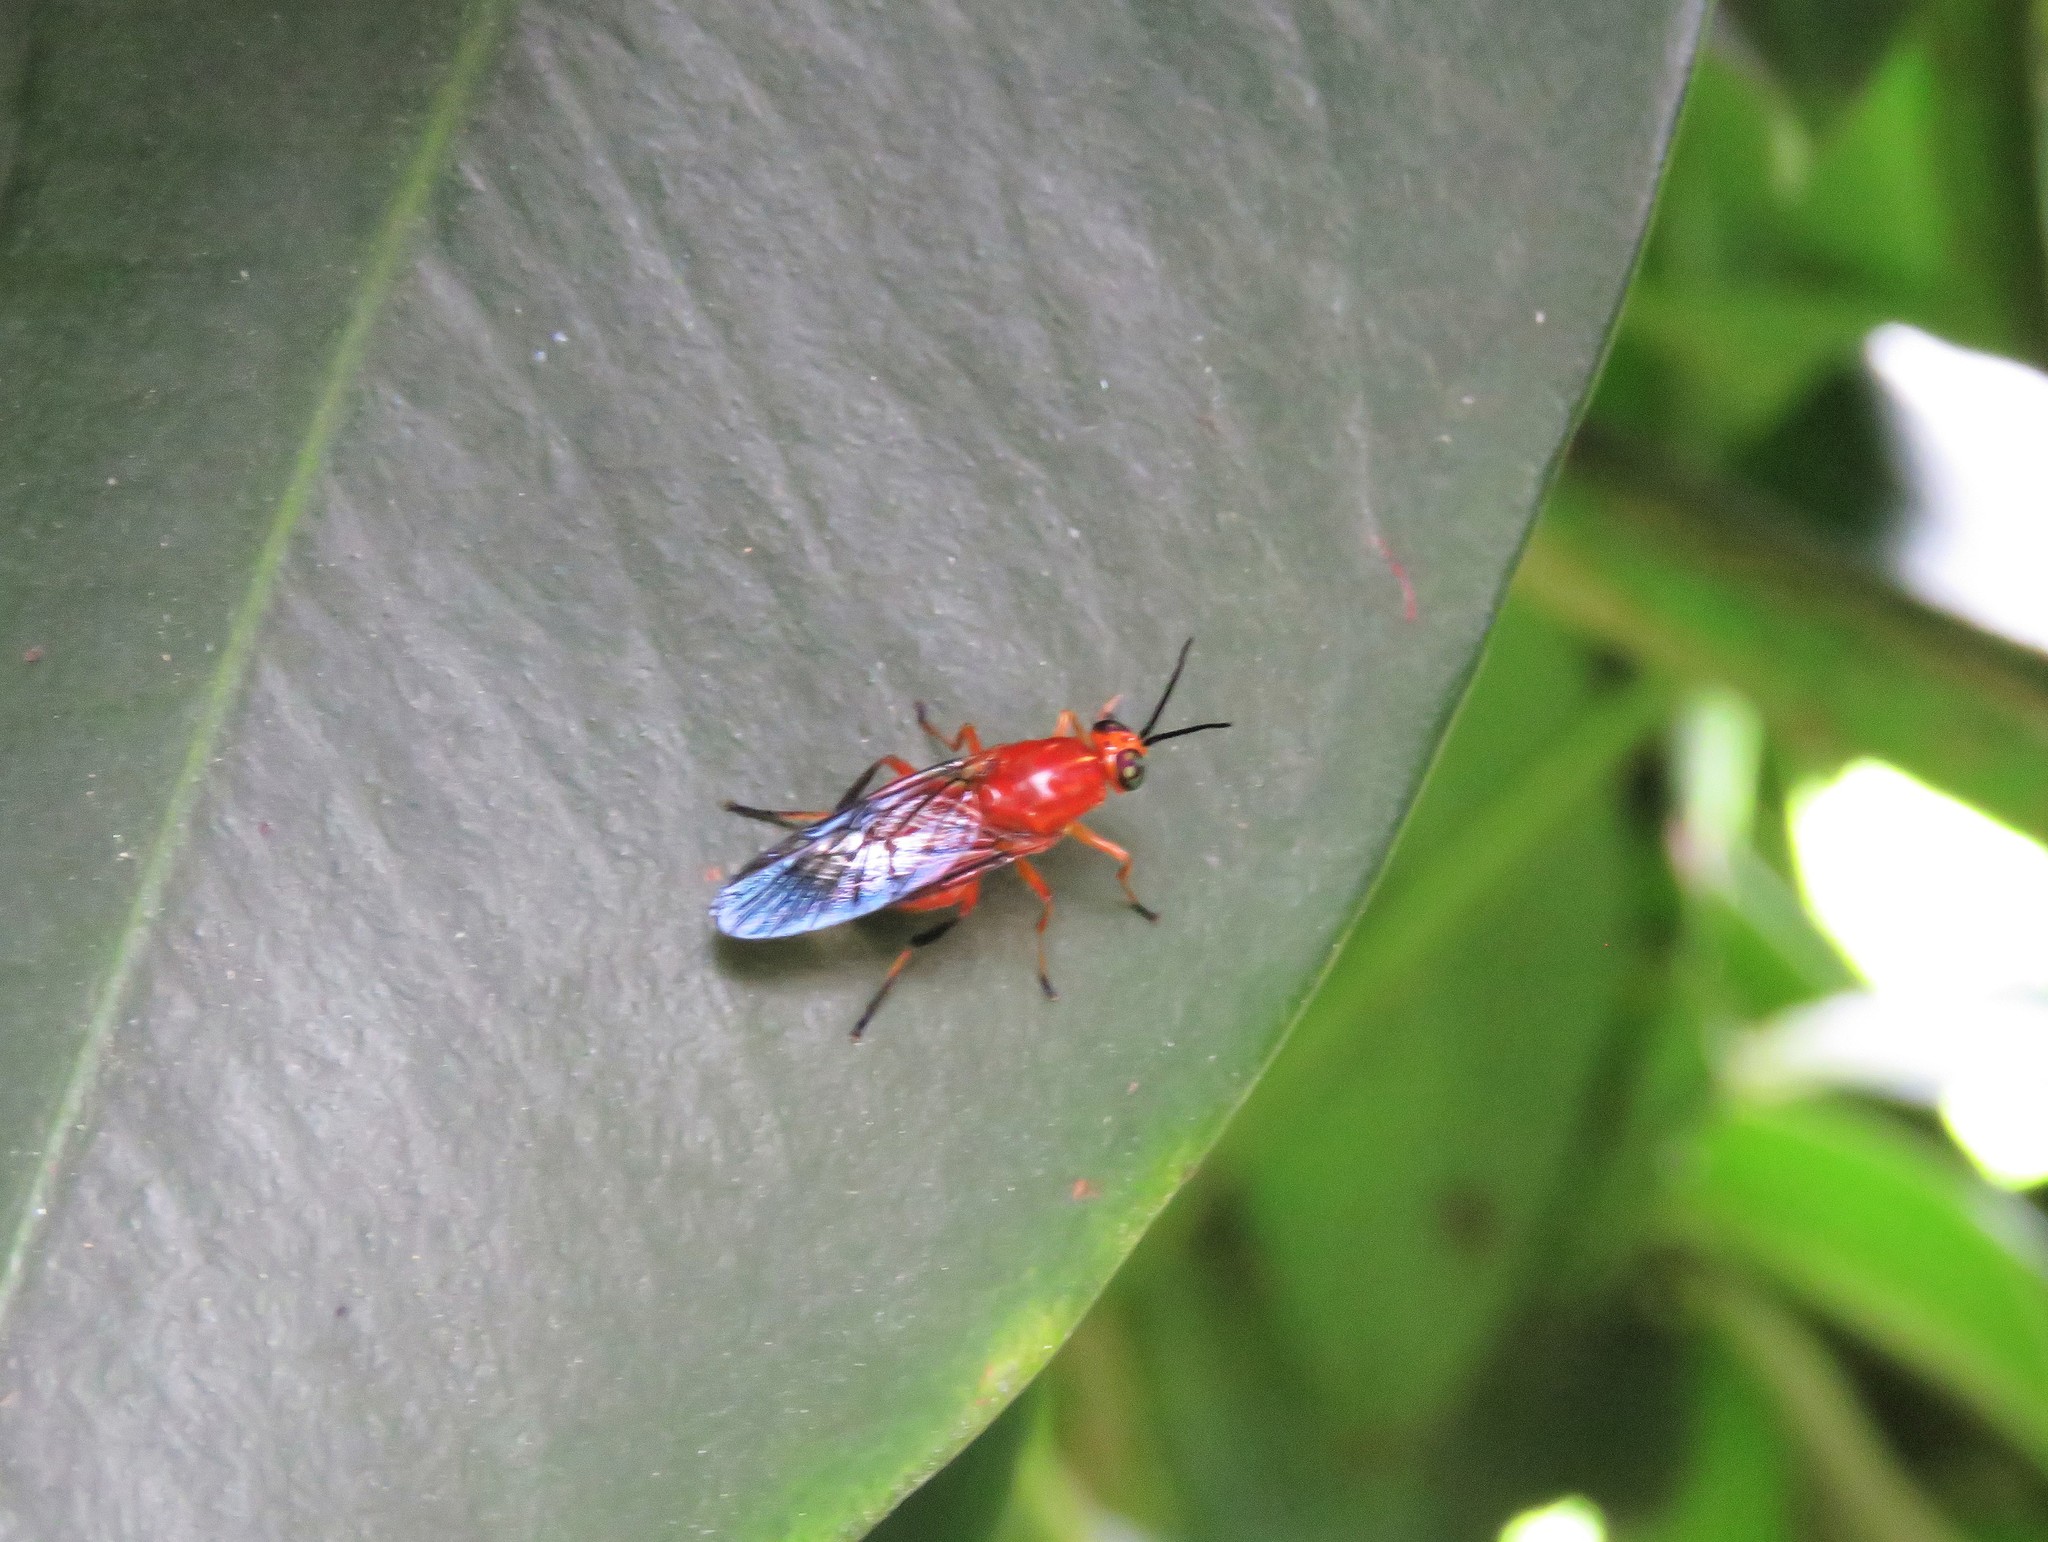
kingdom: Animalia
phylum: Arthropoda
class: Insecta
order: Diptera
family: Stratiomyidae
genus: Cyphomyia
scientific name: Cyphomyia dispar
